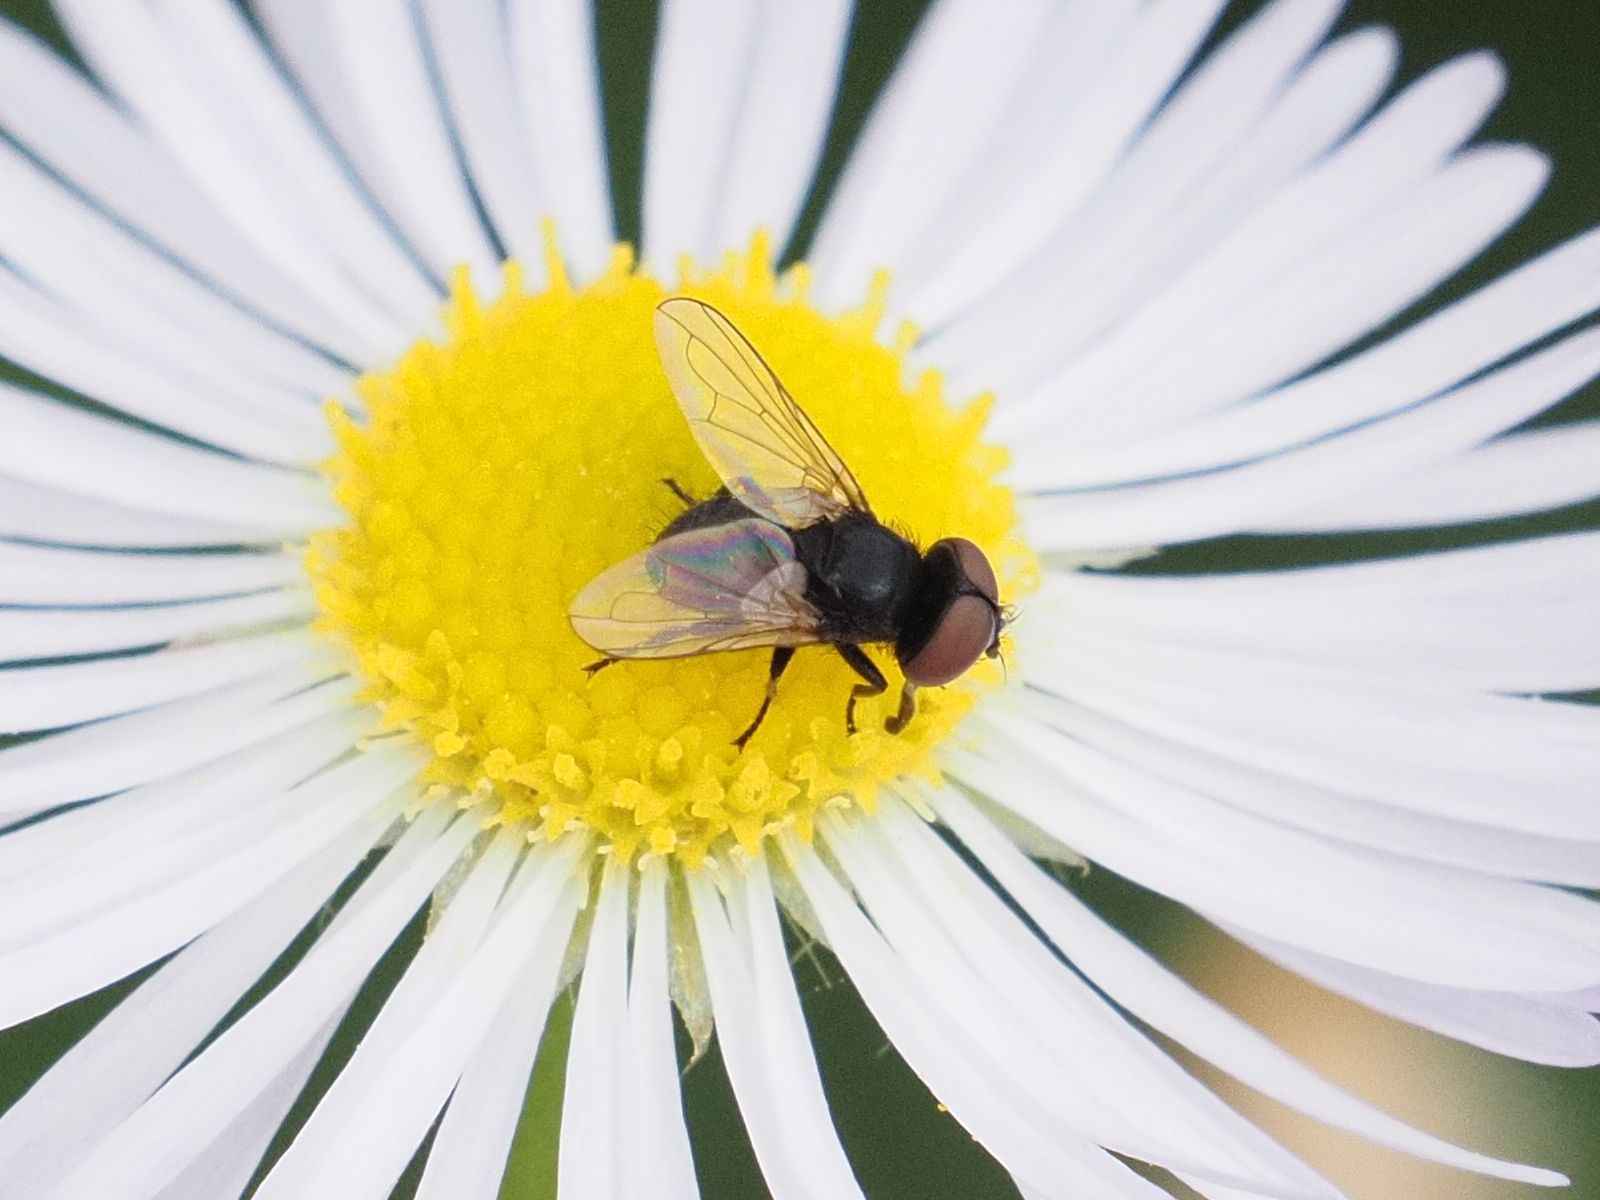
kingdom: Animalia
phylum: Arthropoda
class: Insecta
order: Diptera
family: Tachinidae
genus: Phasia
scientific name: Phasia pusilla
